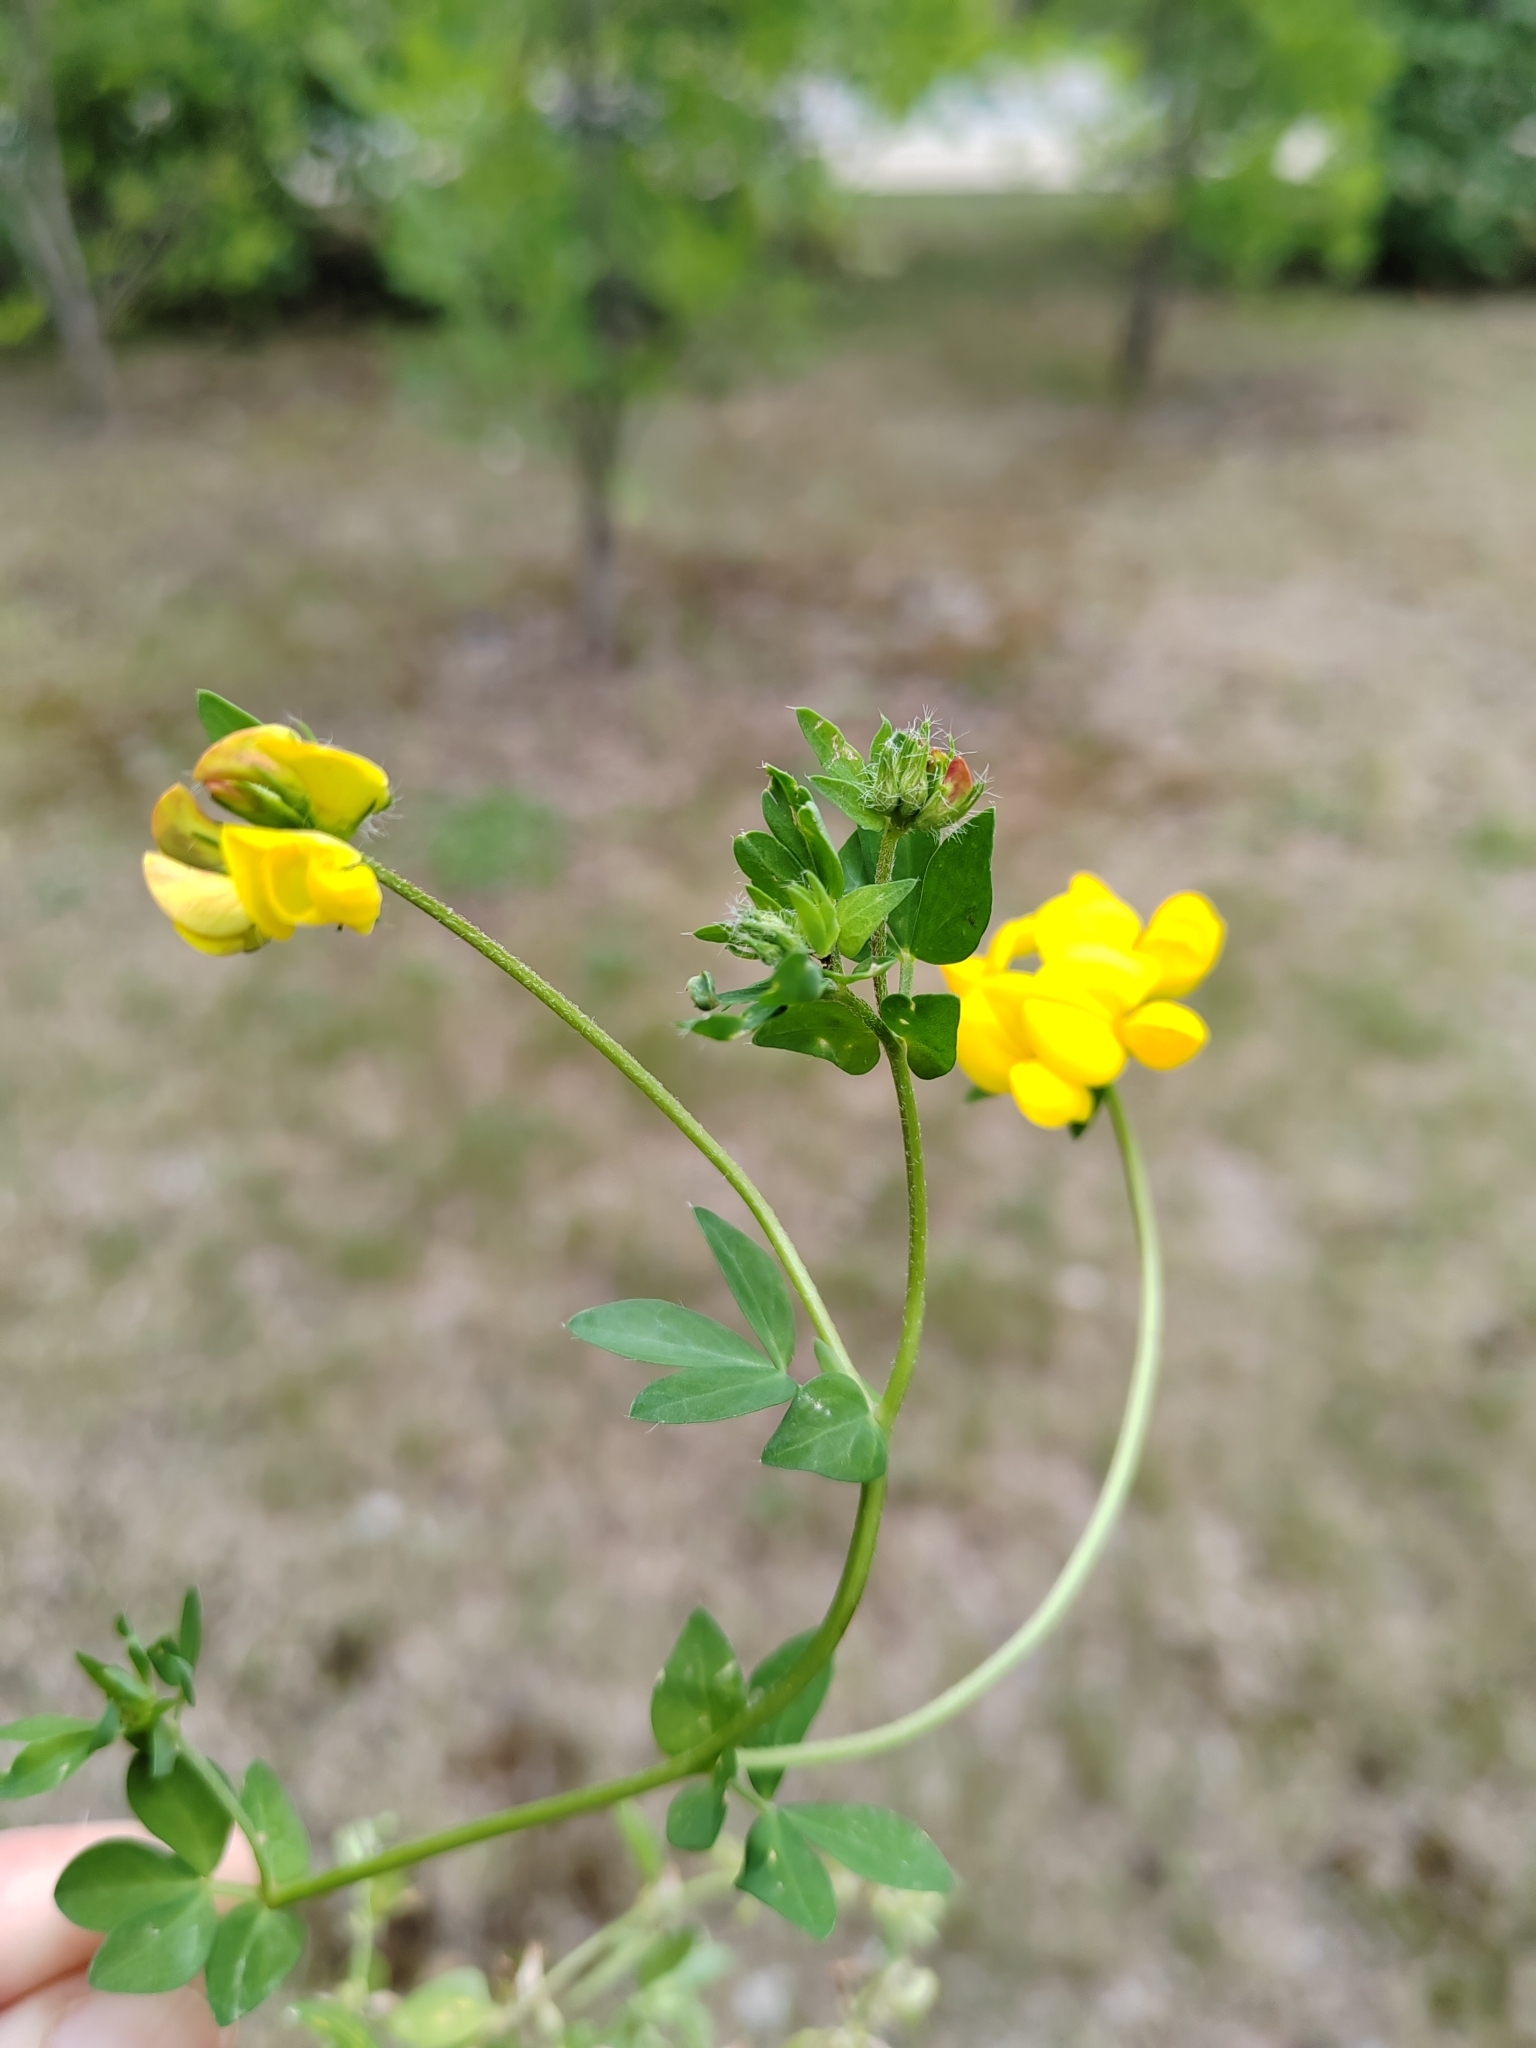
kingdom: Plantae
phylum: Tracheophyta
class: Magnoliopsida
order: Fabales
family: Fabaceae
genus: Lotus
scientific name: Lotus corniculatus
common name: Common bird's-foot-trefoil
